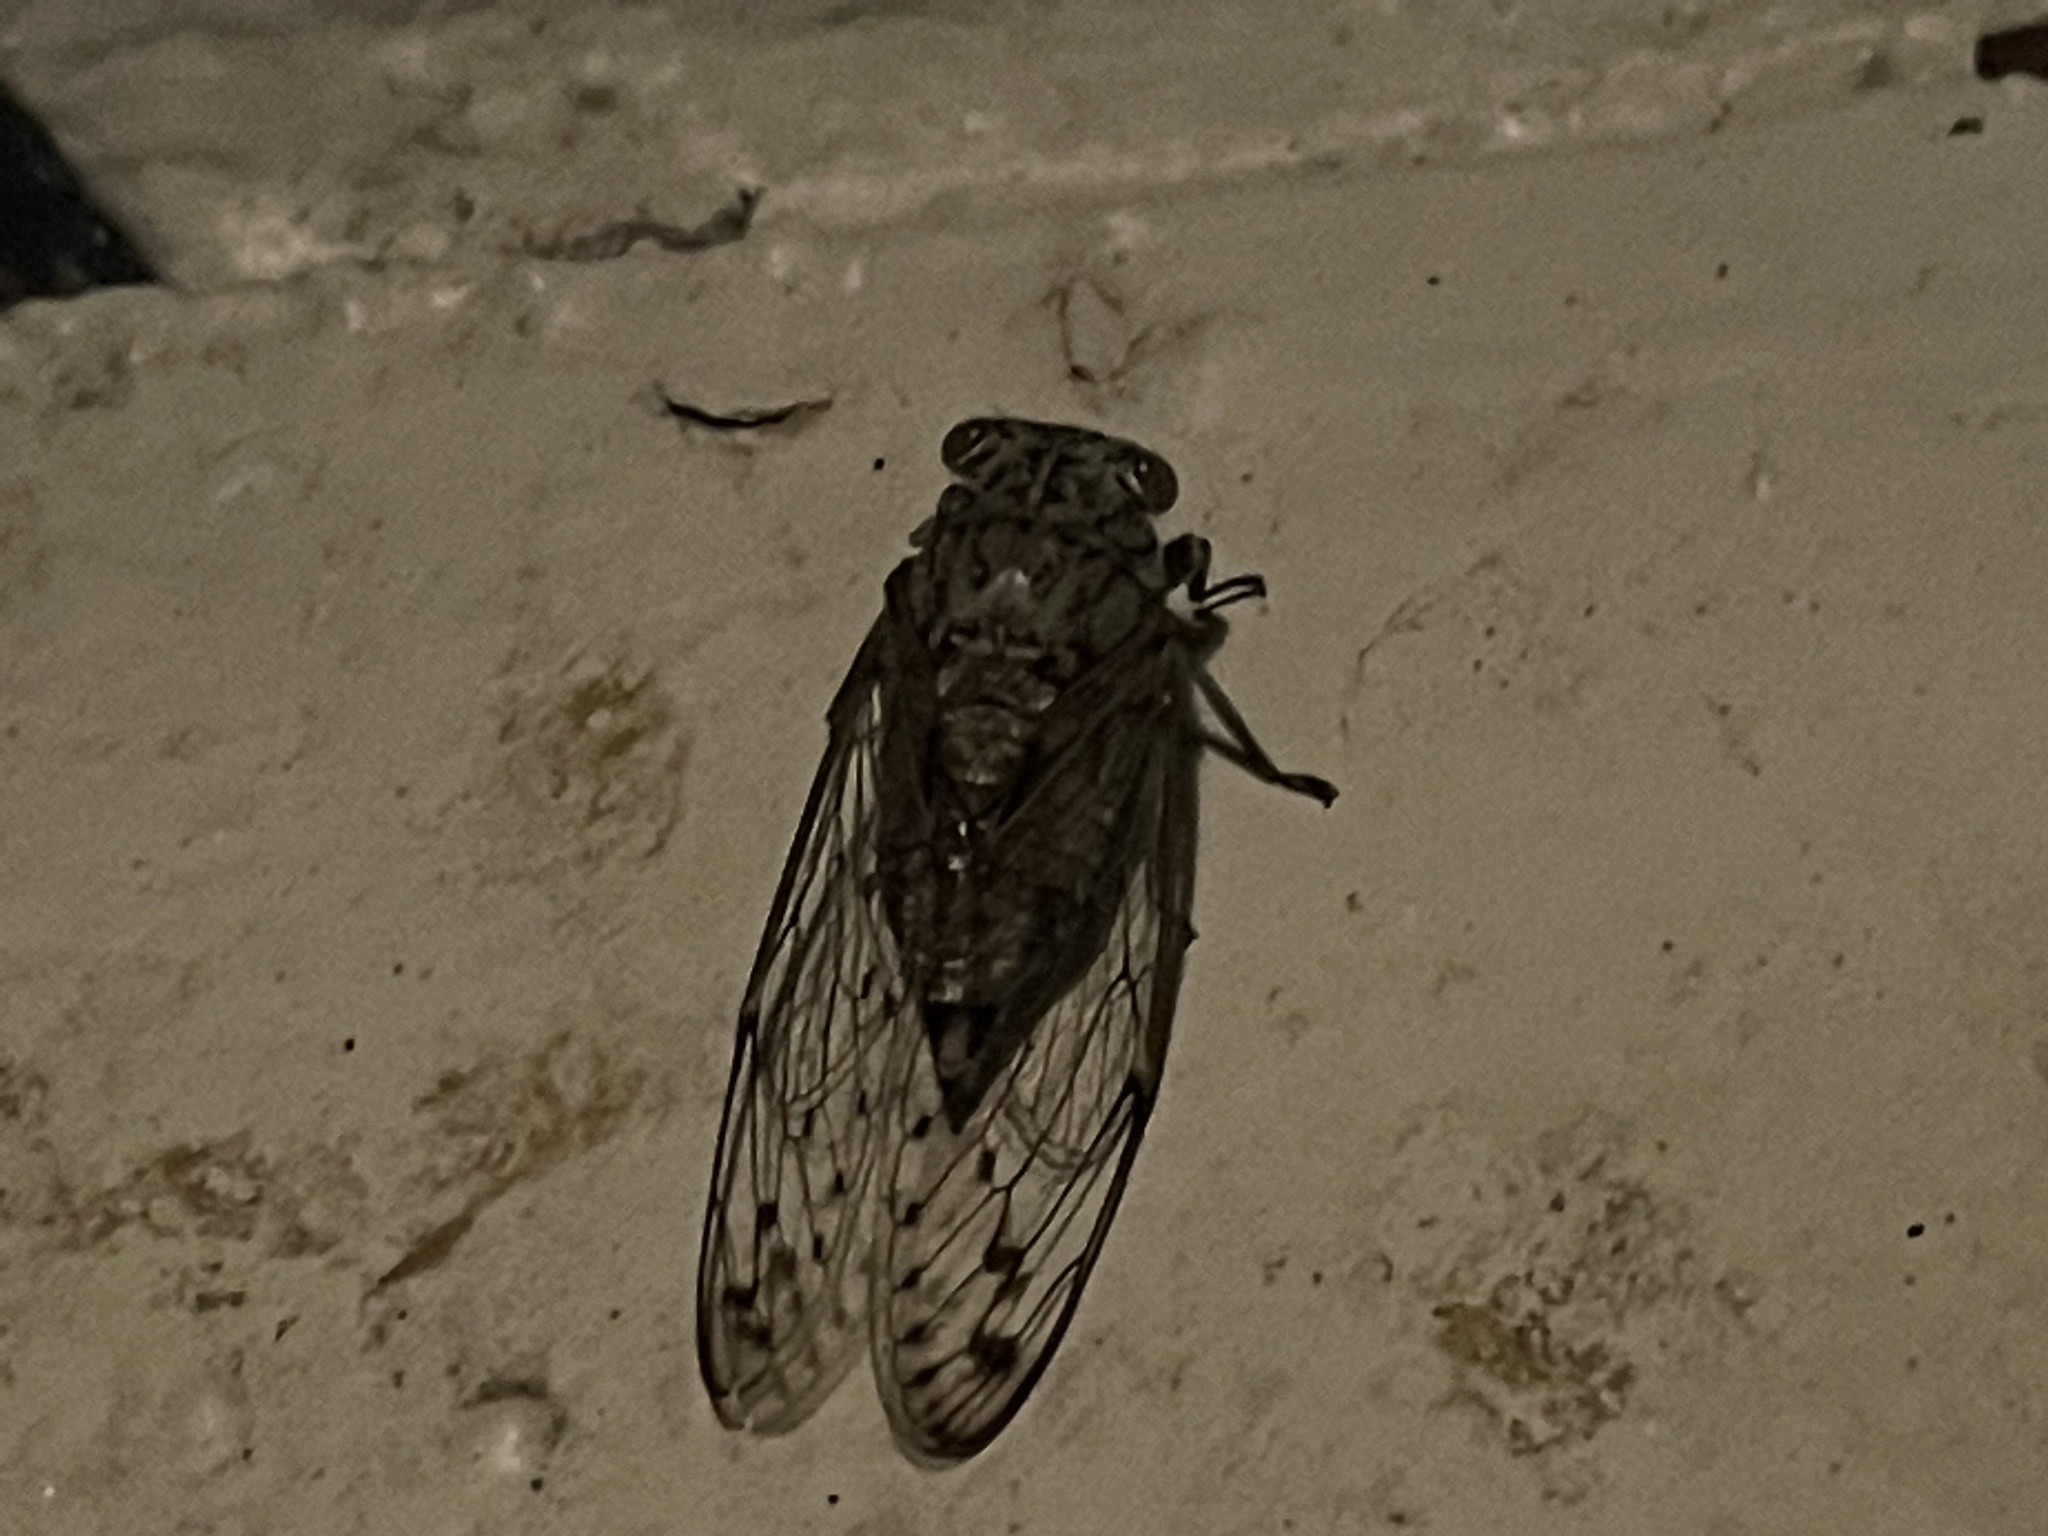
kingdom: Animalia
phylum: Arthropoda
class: Insecta
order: Hemiptera
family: Cicadidae
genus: Neocicada
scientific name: Neocicada hieroglyphica
